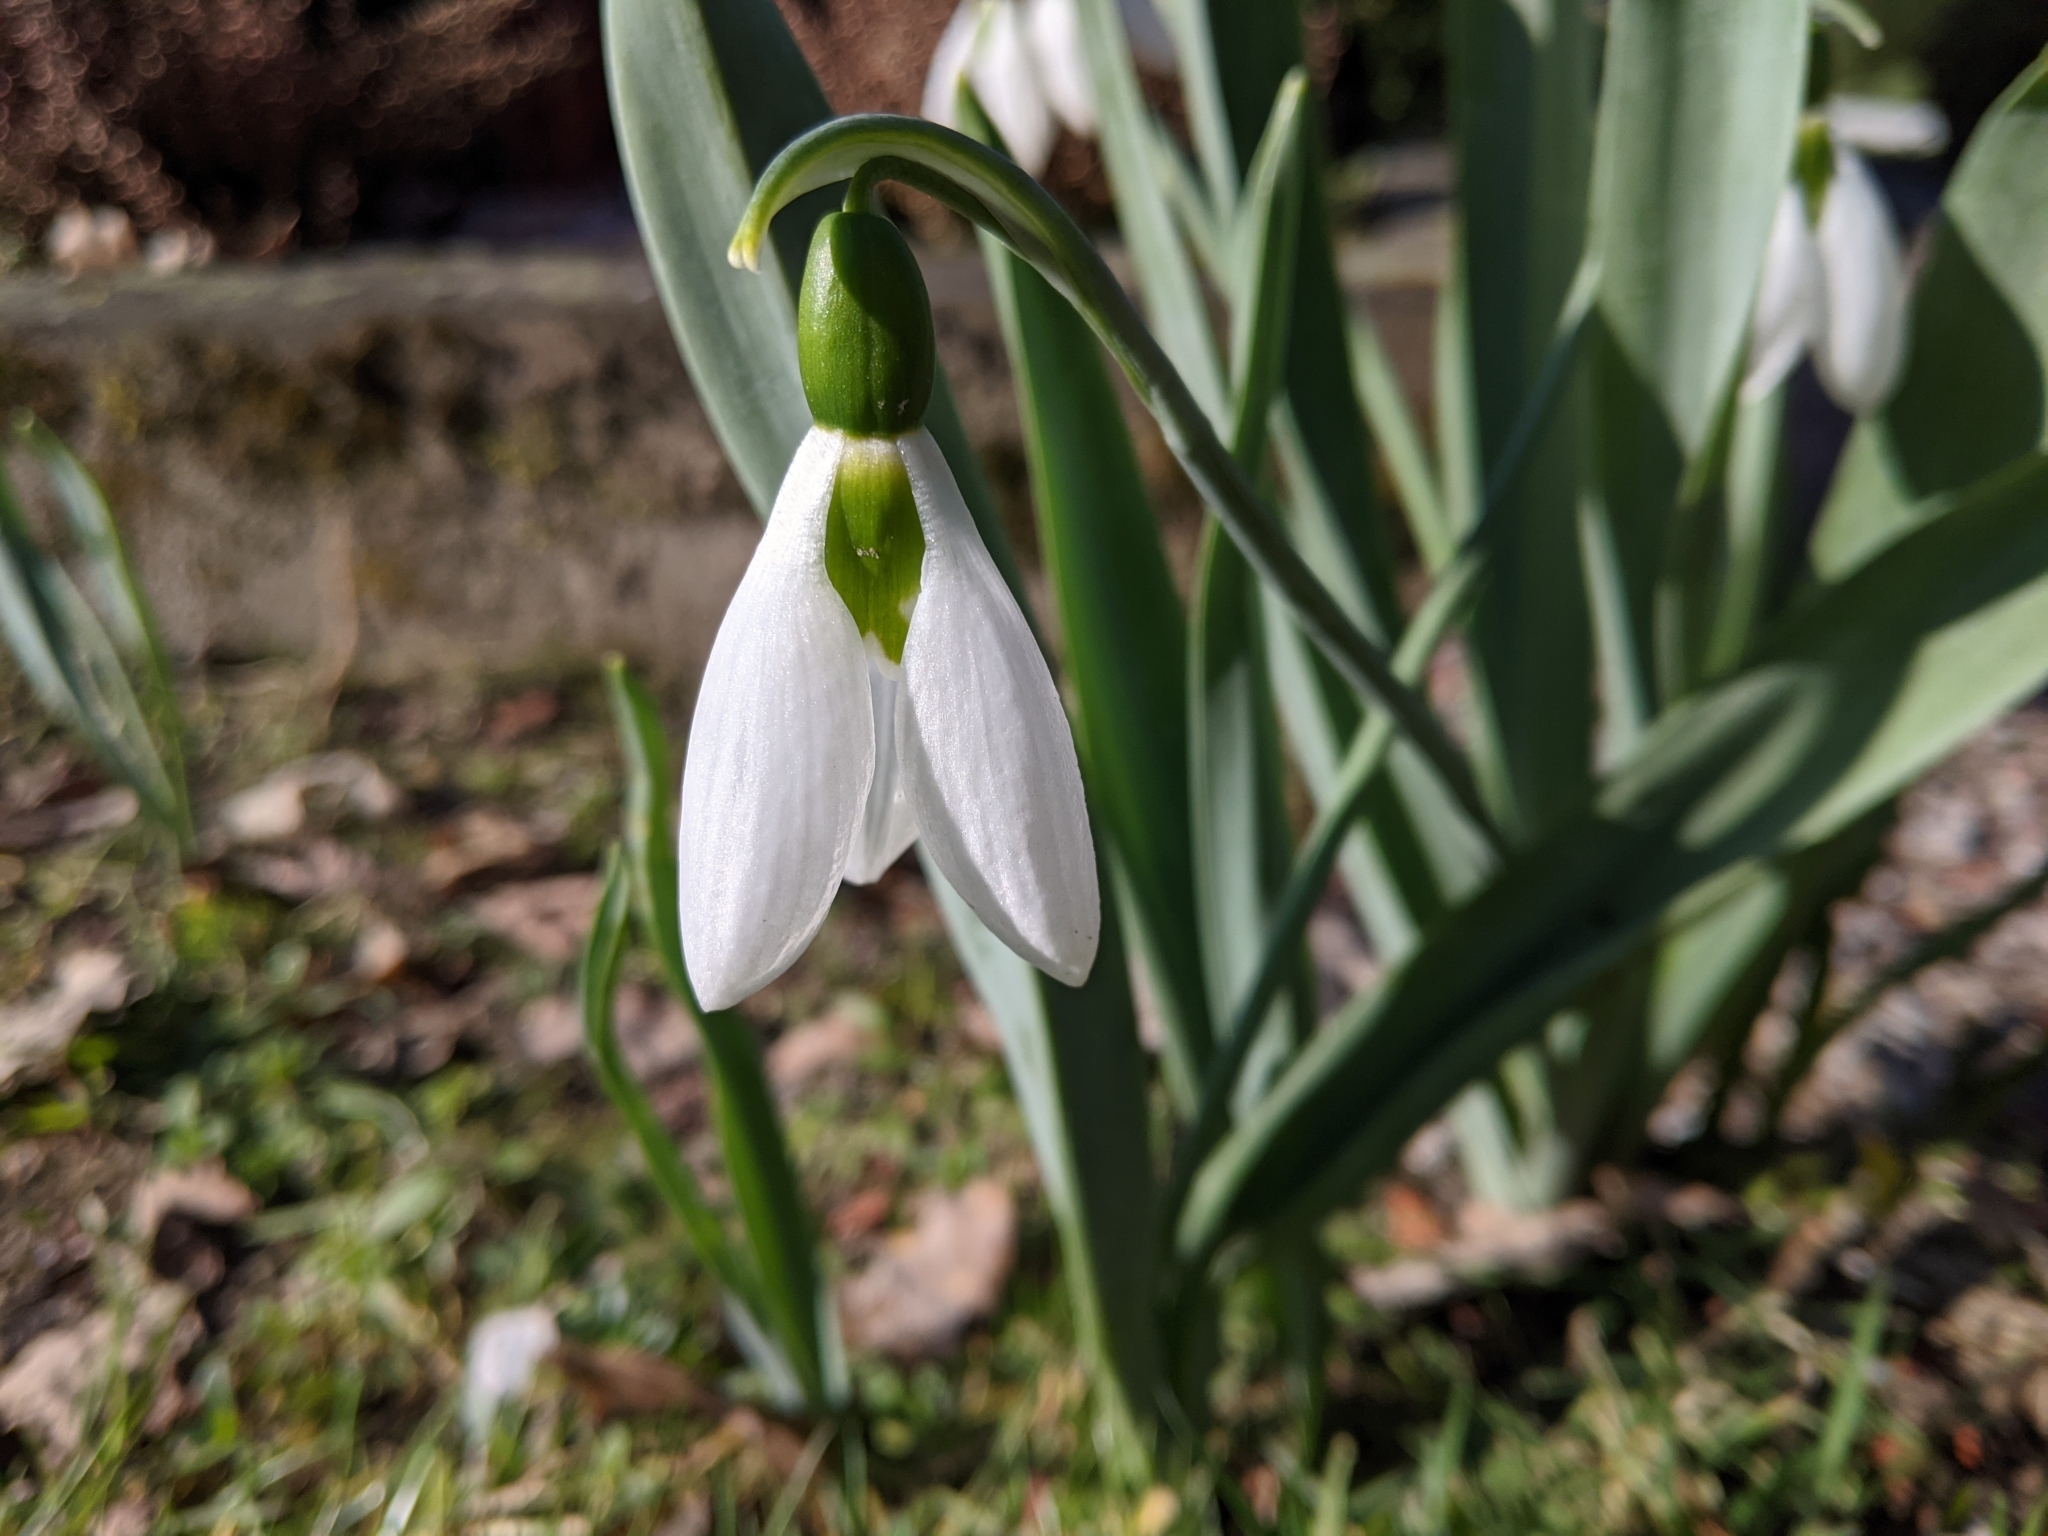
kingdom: Plantae
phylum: Tracheophyta
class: Liliopsida
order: Asparagales
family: Amaryllidaceae
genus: Galanthus
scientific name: Galanthus elwesii
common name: Greater snowdrop
